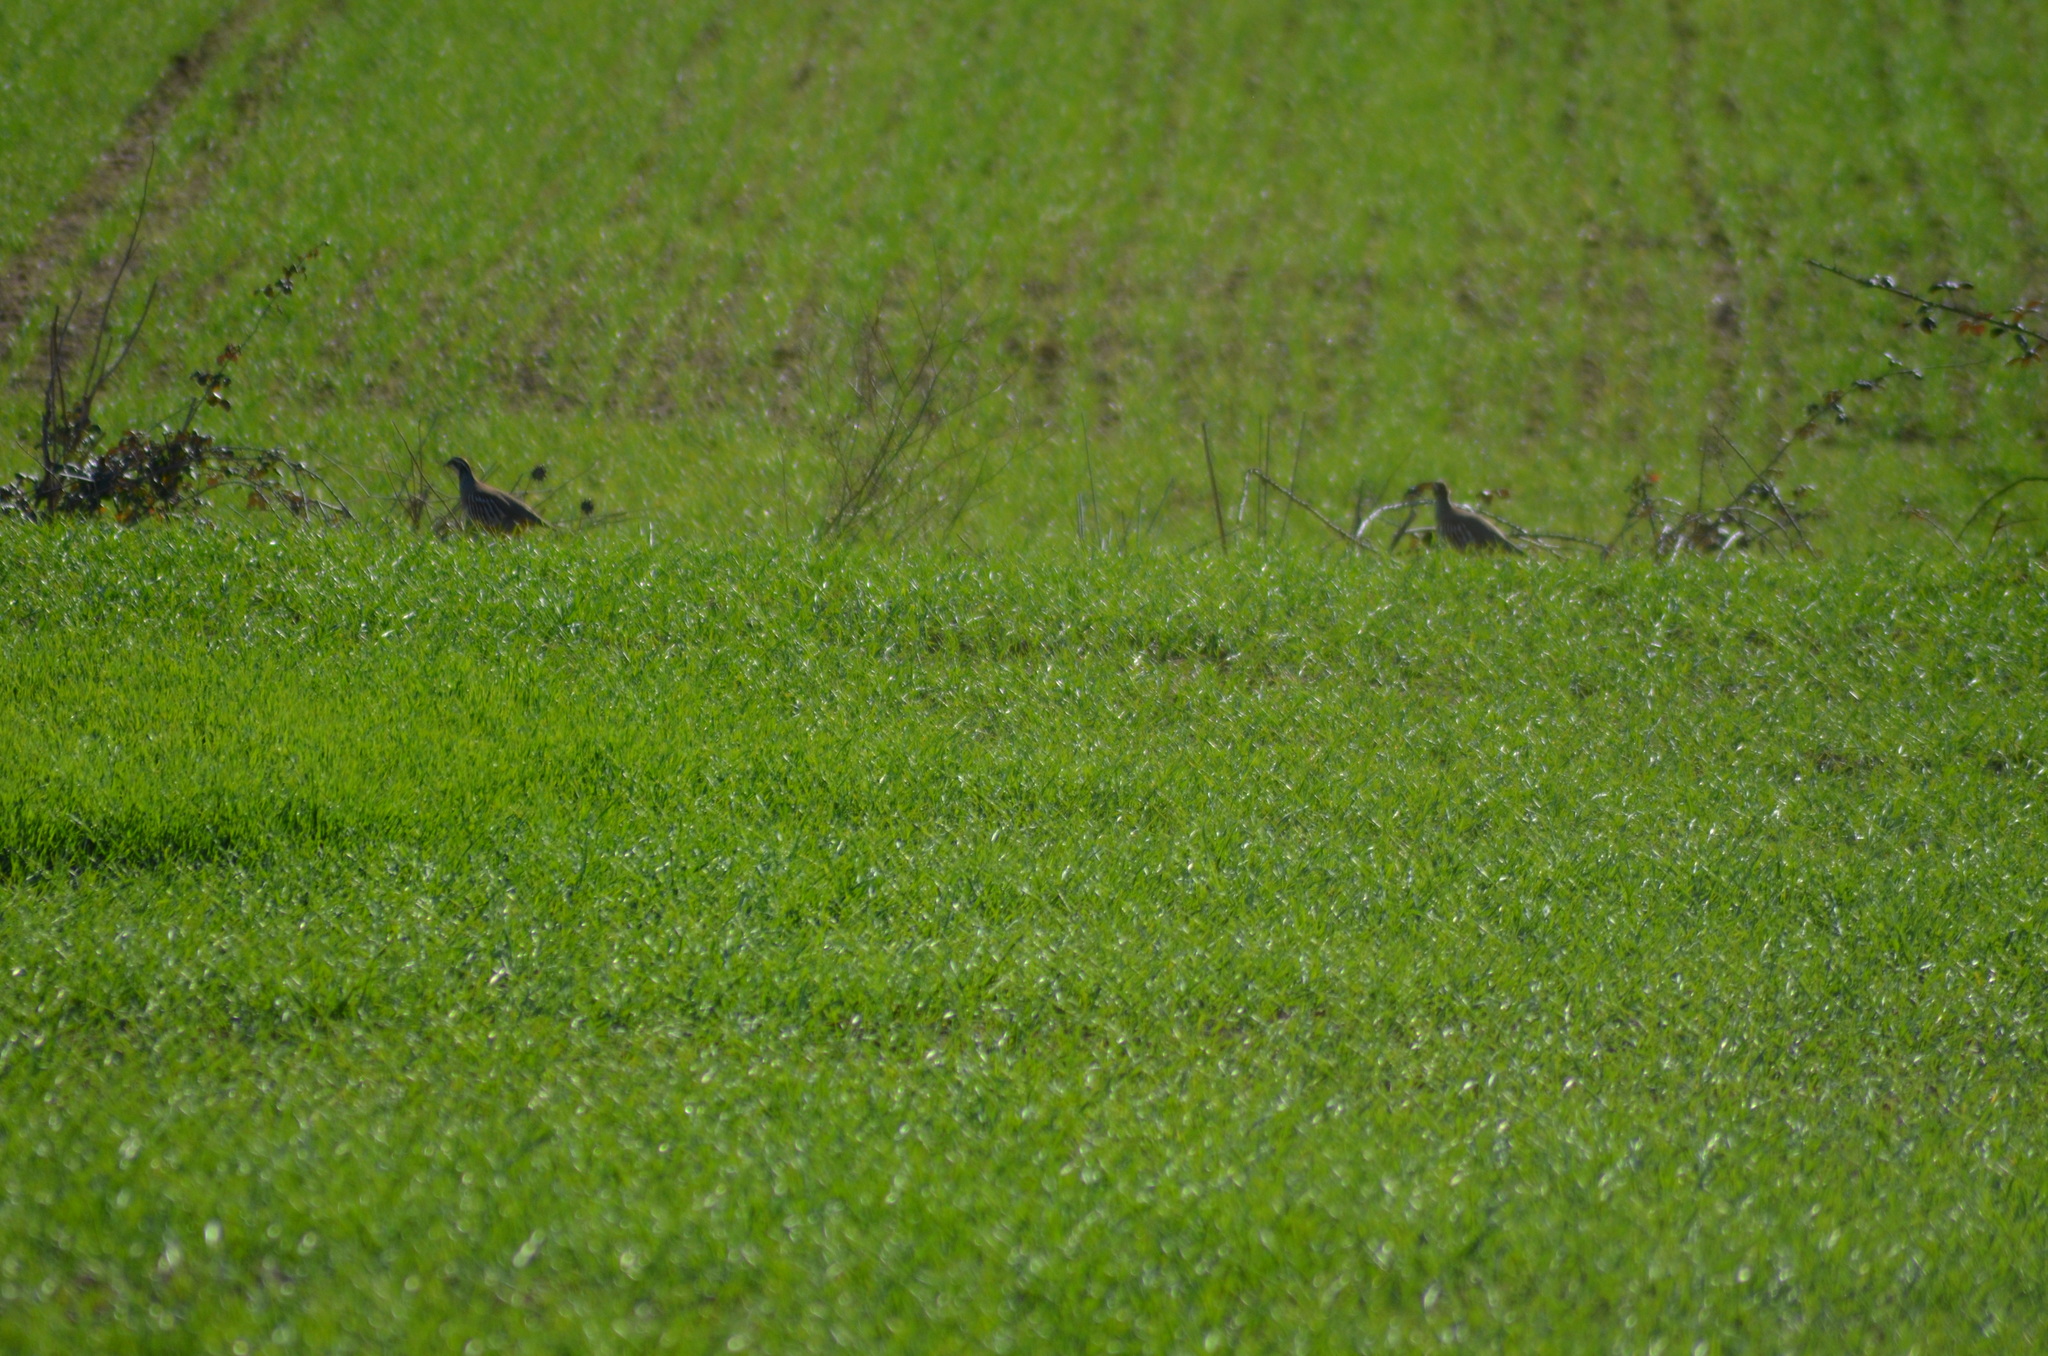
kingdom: Animalia
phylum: Chordata
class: Aves
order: Galliformes
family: Phasianidae
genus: Alectoris
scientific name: Alectoris rufa
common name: Red-legged partridge
